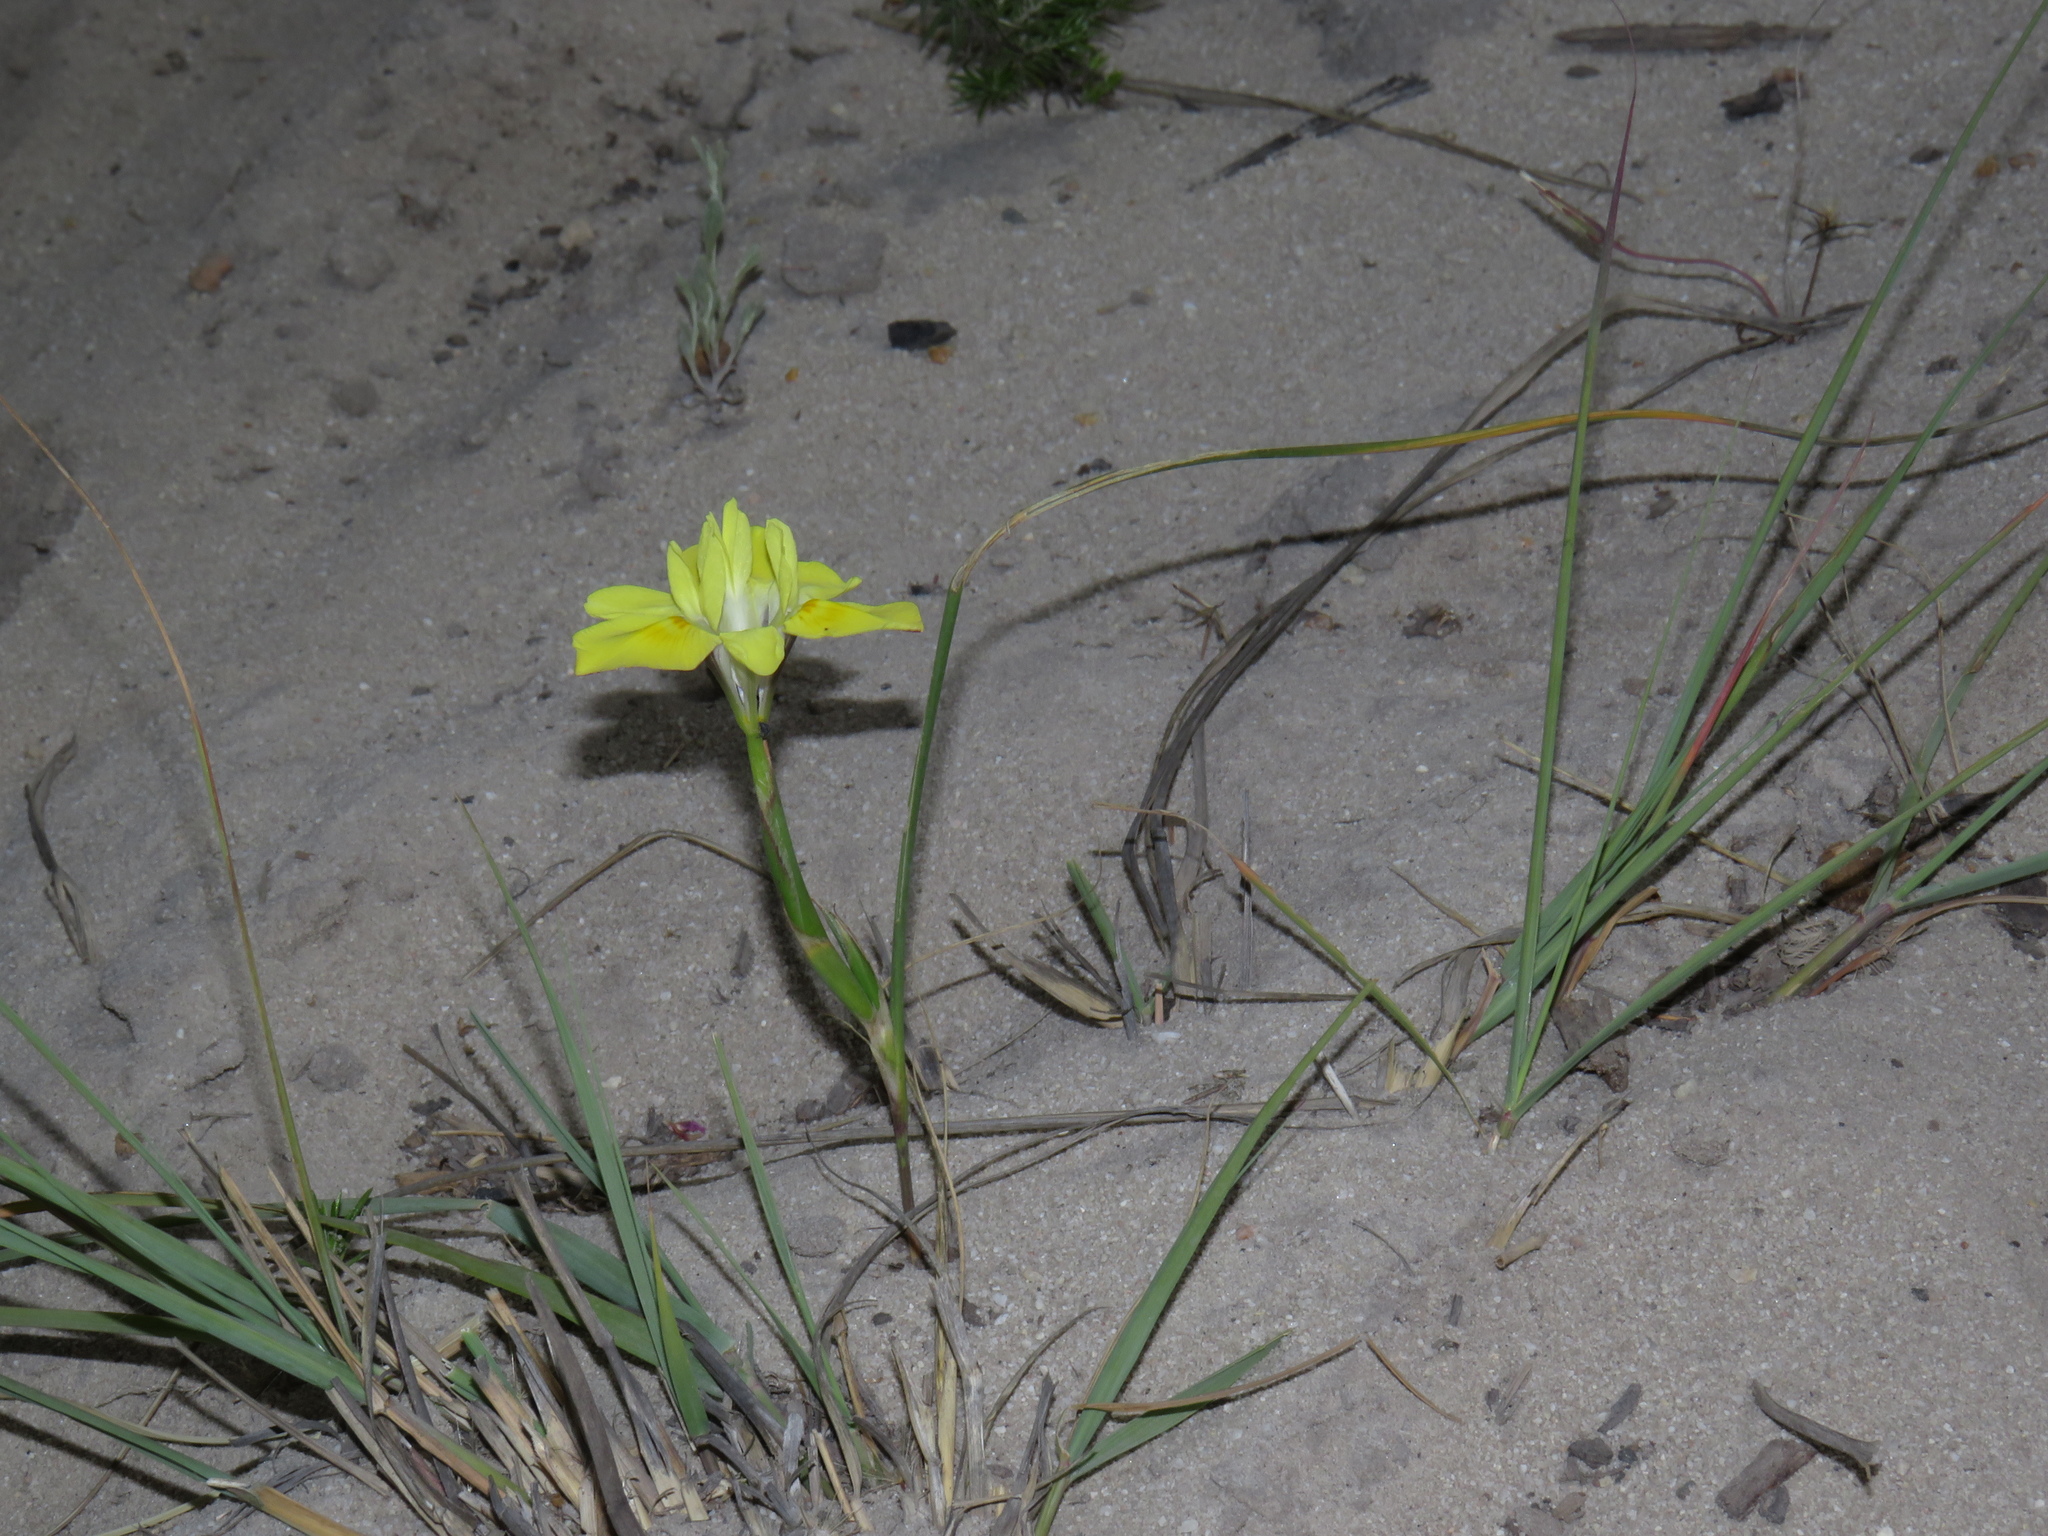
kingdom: Plantae
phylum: Tracheophyta
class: Liliopsida
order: Asparagales
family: Iridaceae
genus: Moraea
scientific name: Moraea fugax
